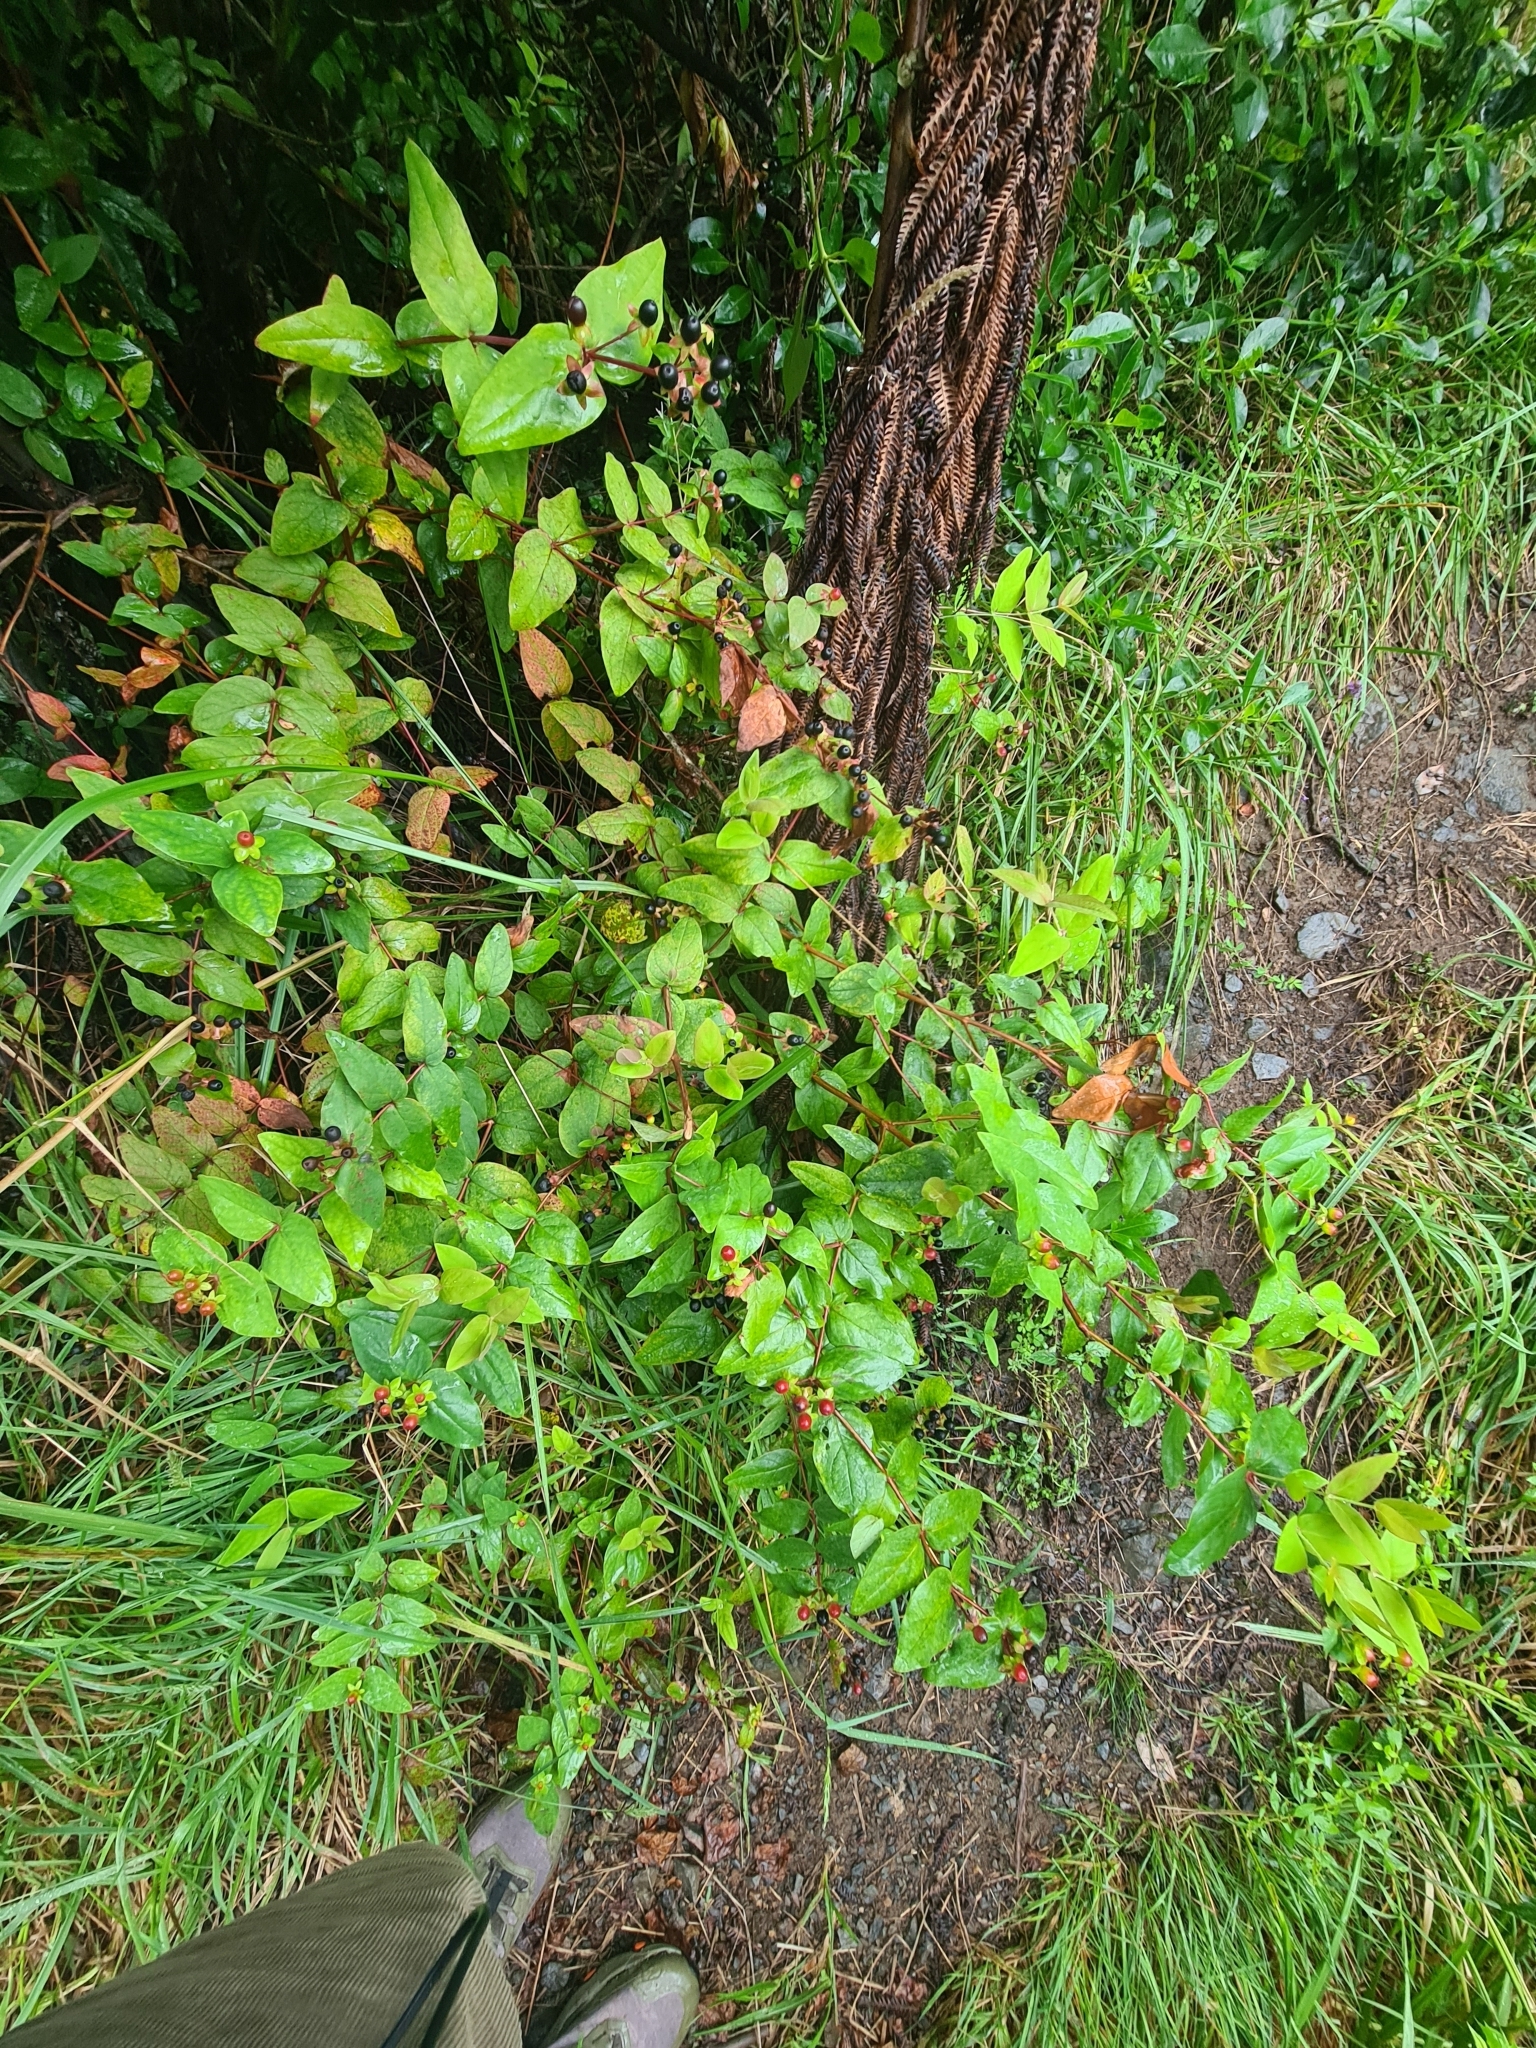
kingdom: Plantae
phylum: Tracheophyta
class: Magnoliopsida
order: Malpighiales
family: Hypericaceae
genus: Hypericum
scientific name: Hypericum androsaemum
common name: Sweet-amber
